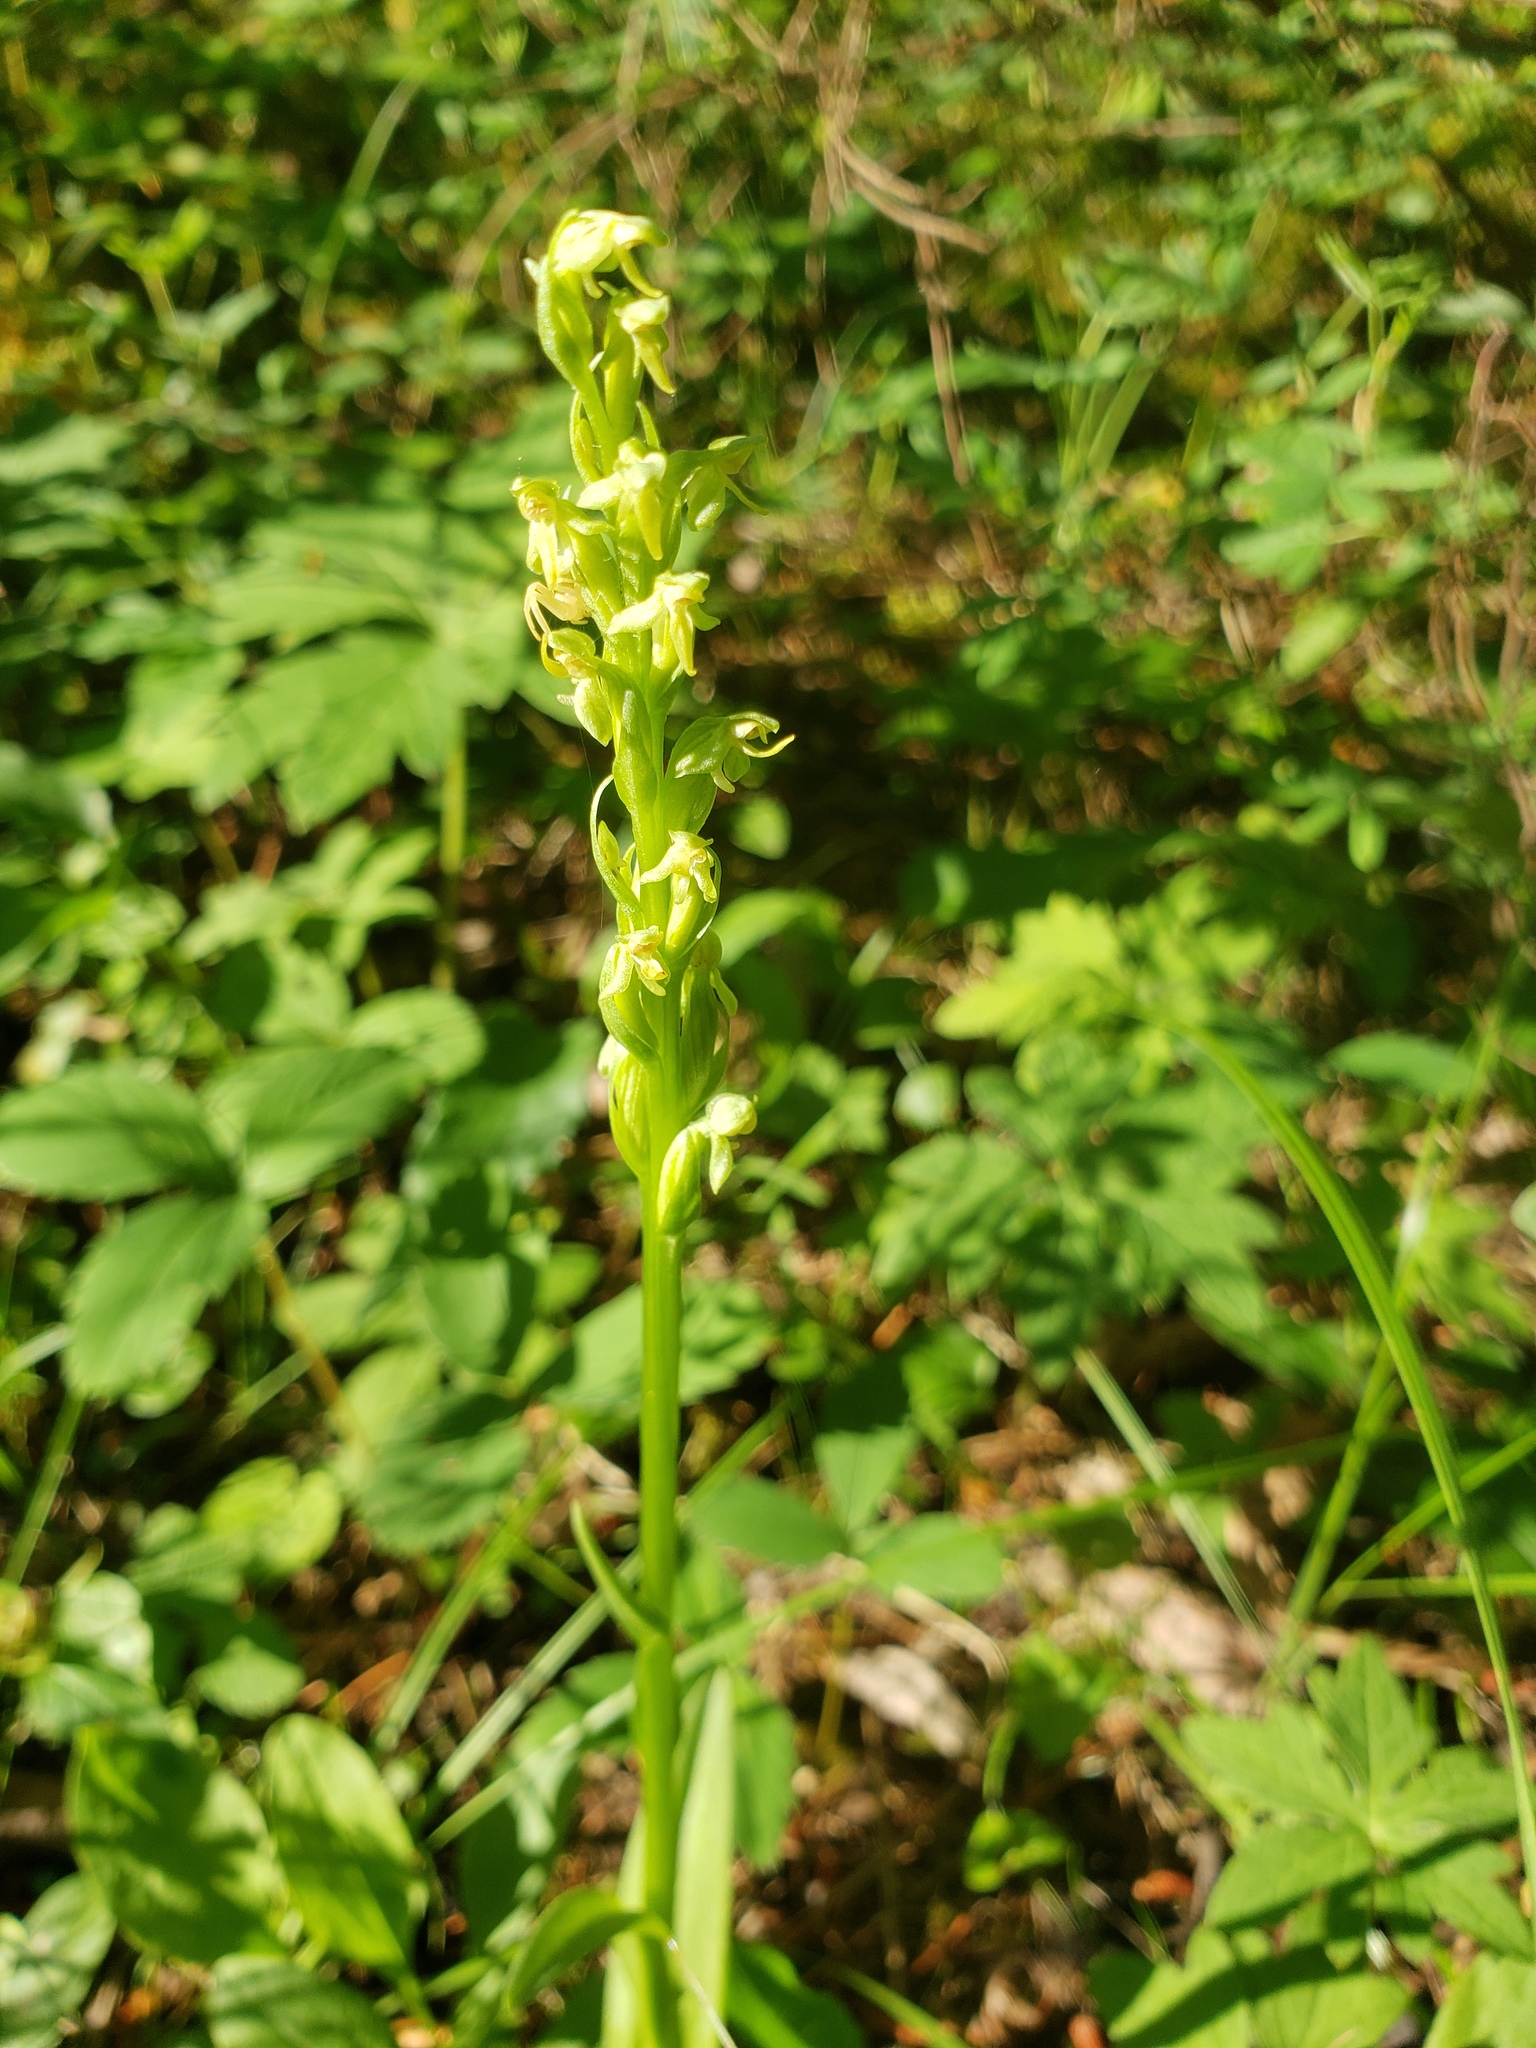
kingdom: Plantae
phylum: Tracheophyta
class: Liliopsida
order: Asparagales
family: Orchidaceae
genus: Platanthera
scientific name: Platanthera aquilonis
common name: Northern green orchid
